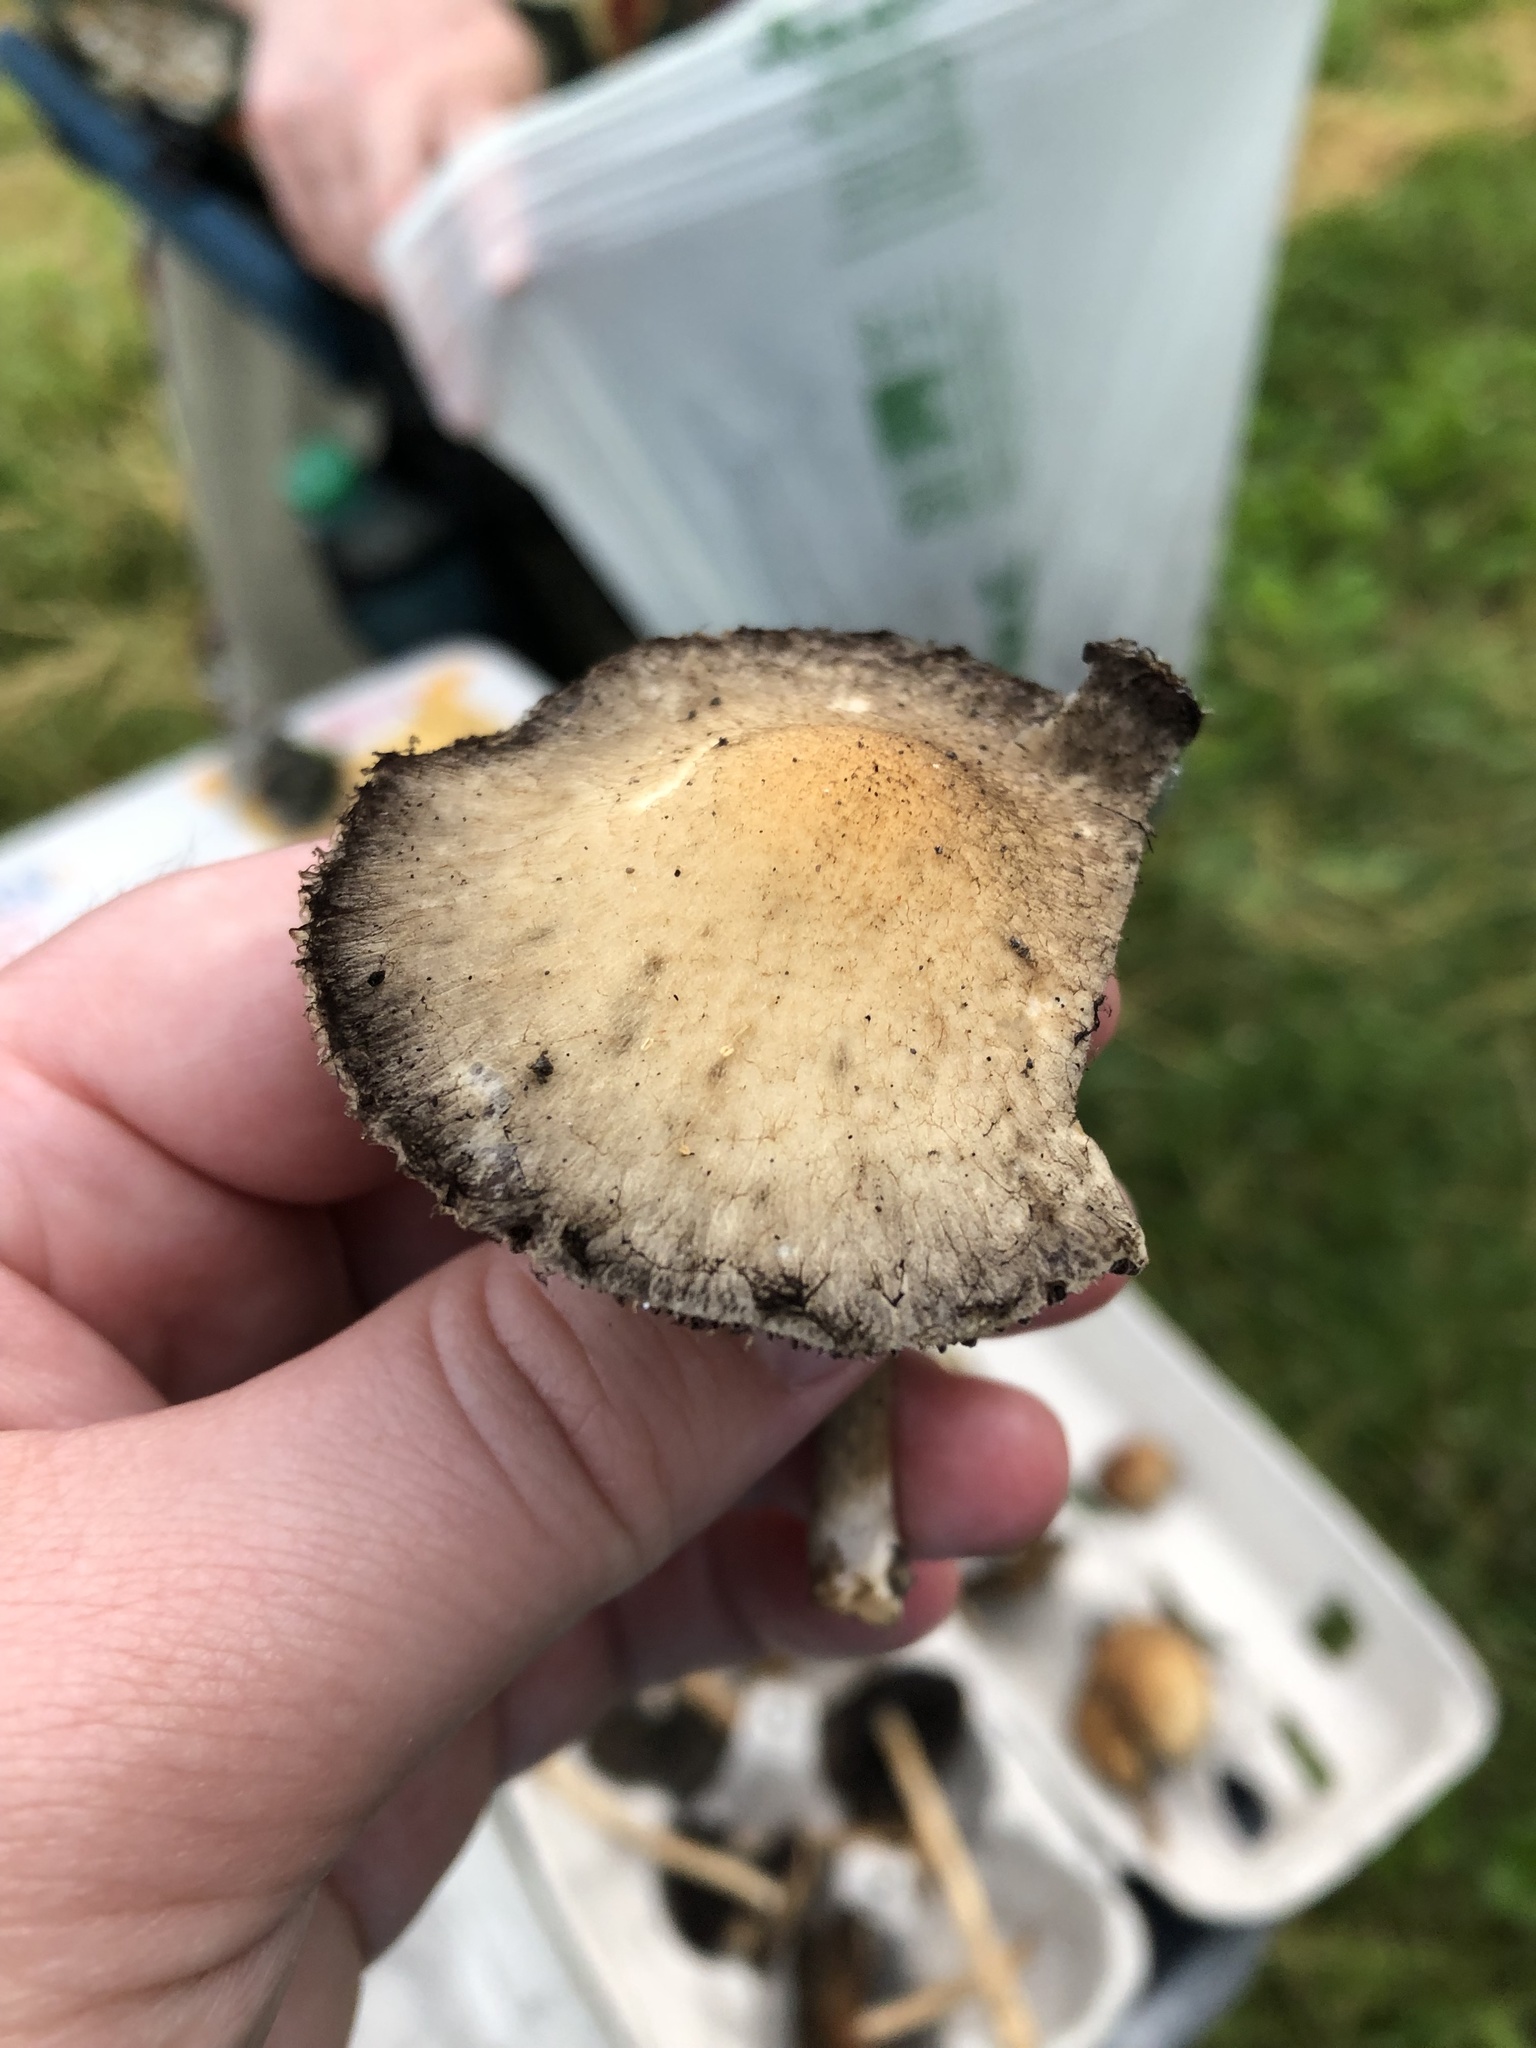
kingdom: Fungi
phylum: Basidiomycota
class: Agaricomycetes
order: Agaricales
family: Psathyrellaceae
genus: Lacrymaria
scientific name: Lacrymaria lacrymabunda
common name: Weeping widow
